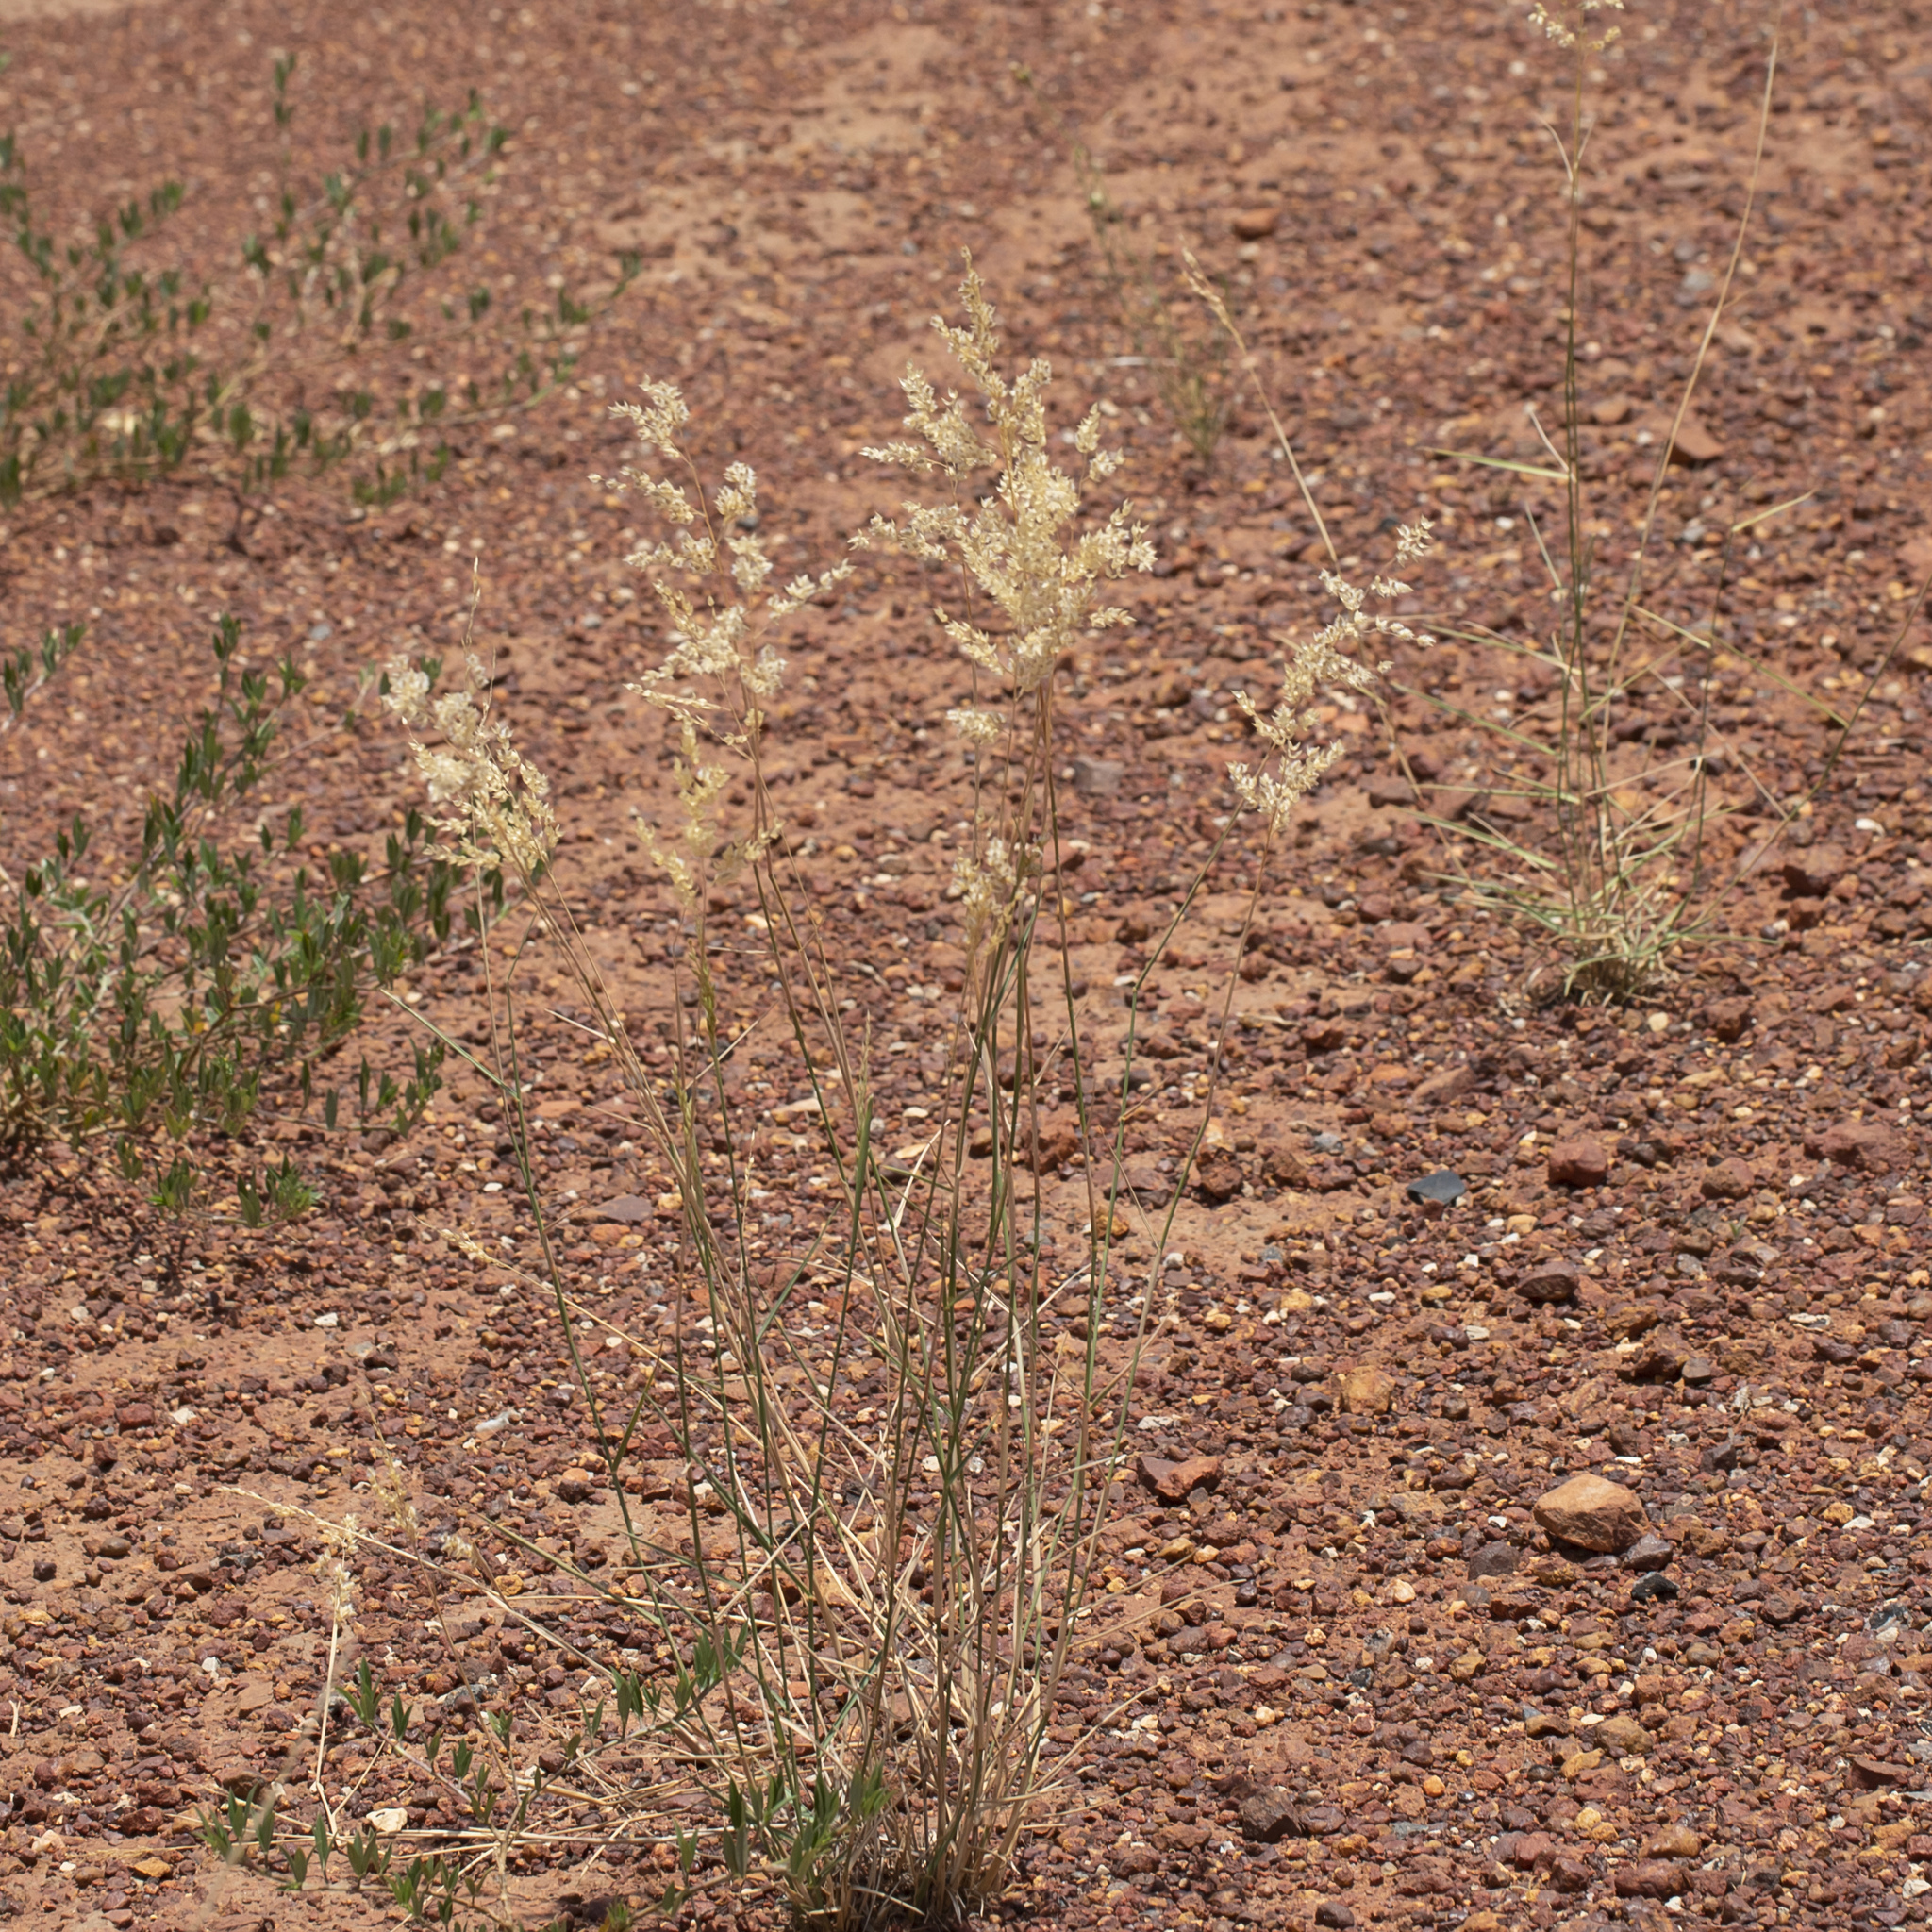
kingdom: Plantae
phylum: Tracheophyta
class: Liliopsida
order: Poales
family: Poaceae
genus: Eriachne
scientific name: Eriachne obtusa
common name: Northern wanderrie grass
